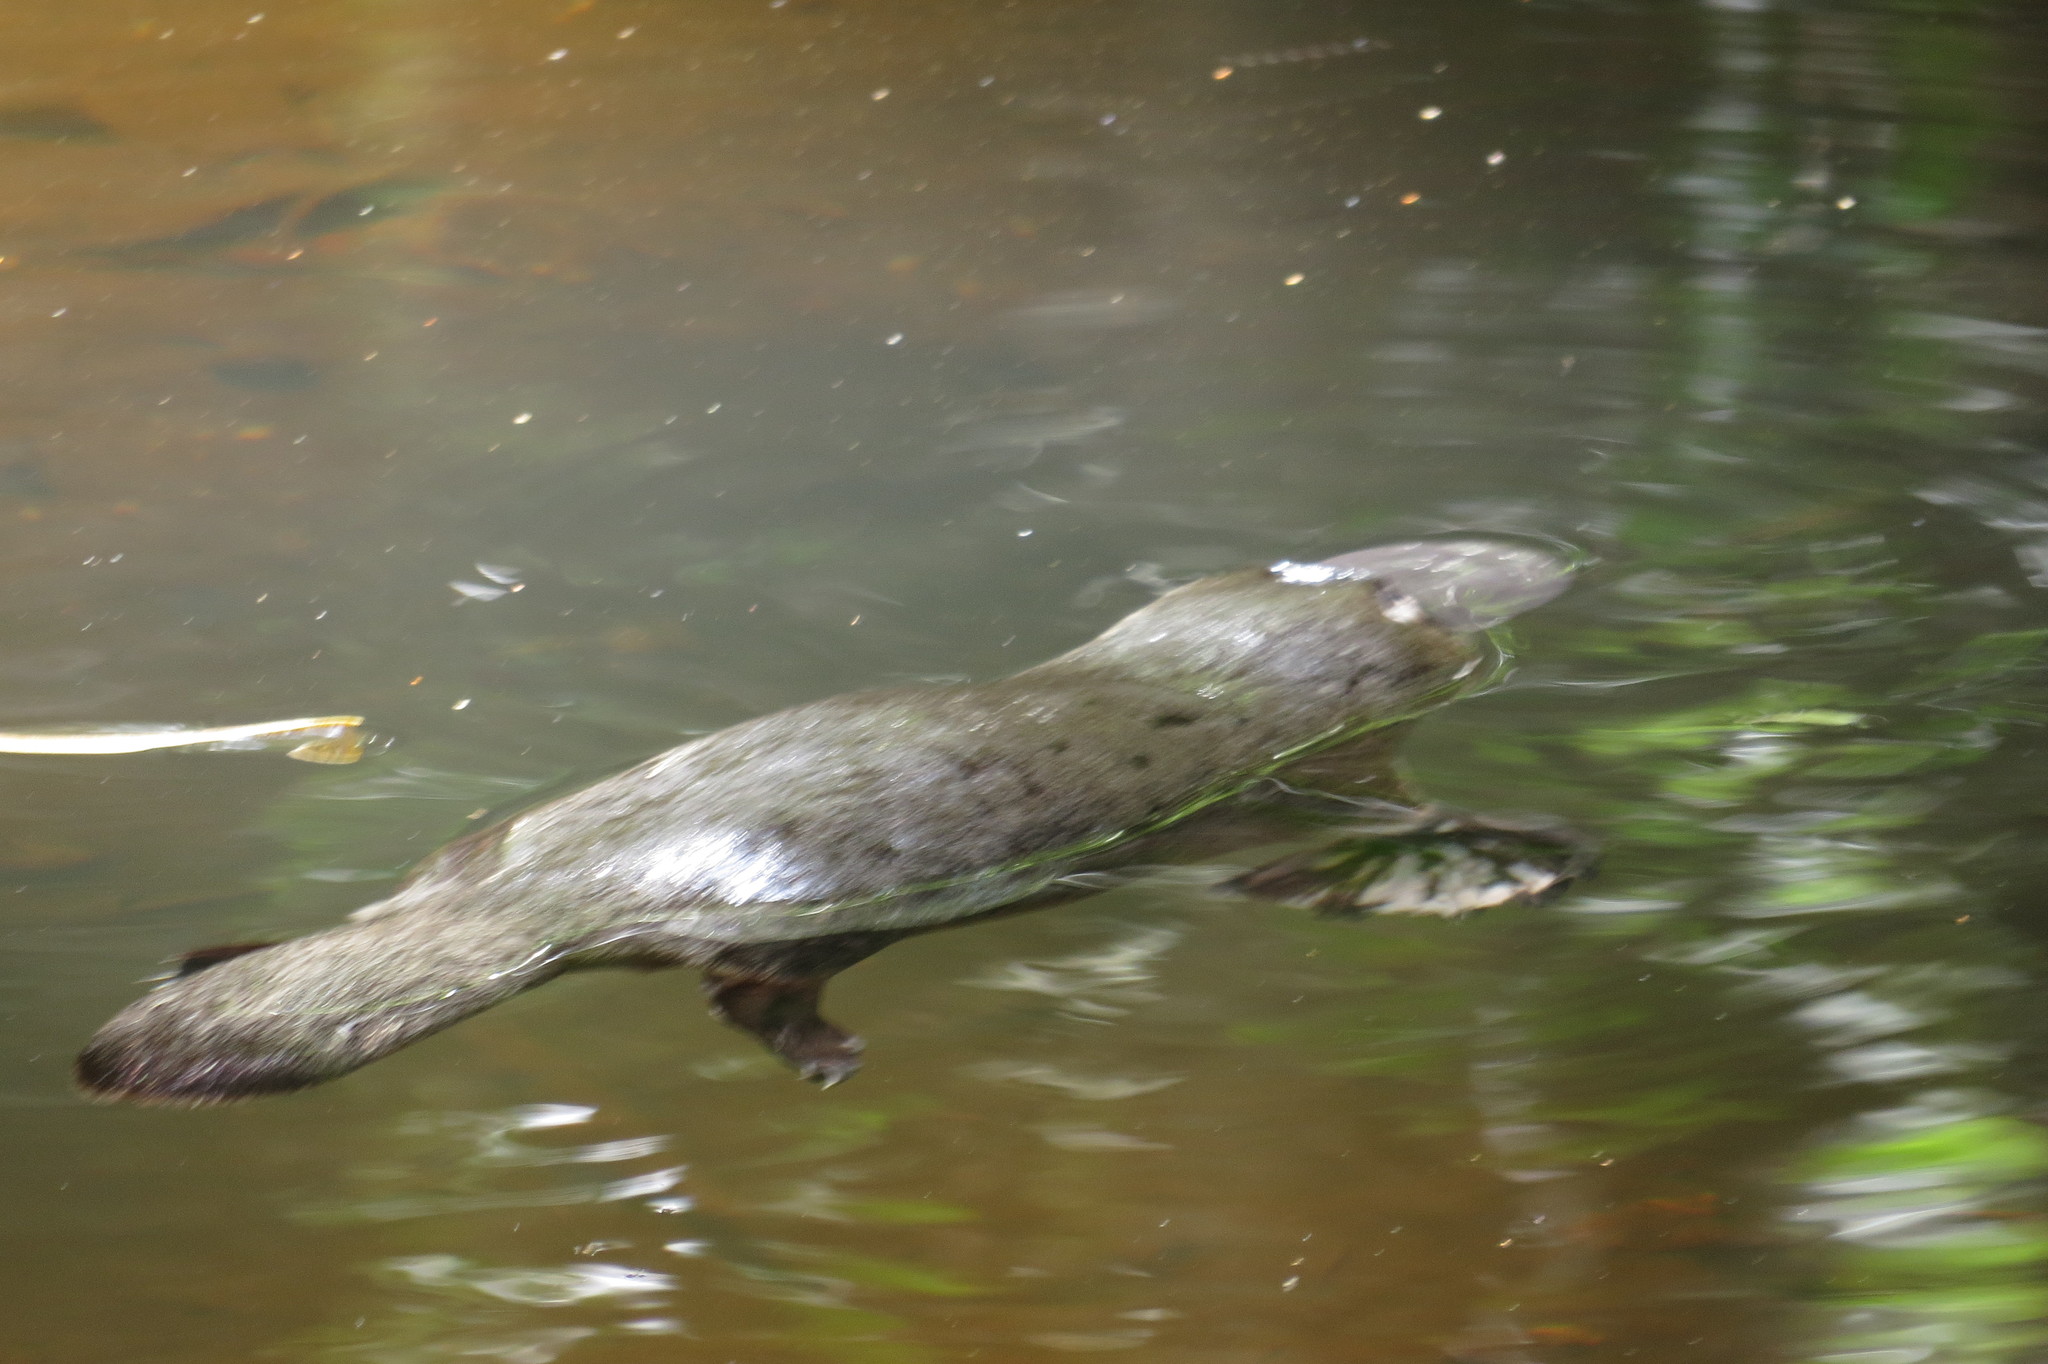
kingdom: Animalia
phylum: Chordata
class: Mammalia
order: Monotremata
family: Ornithorhynchidae
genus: Ornithorhynchus
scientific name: Ornithorhynchus anatinus
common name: Platypus
